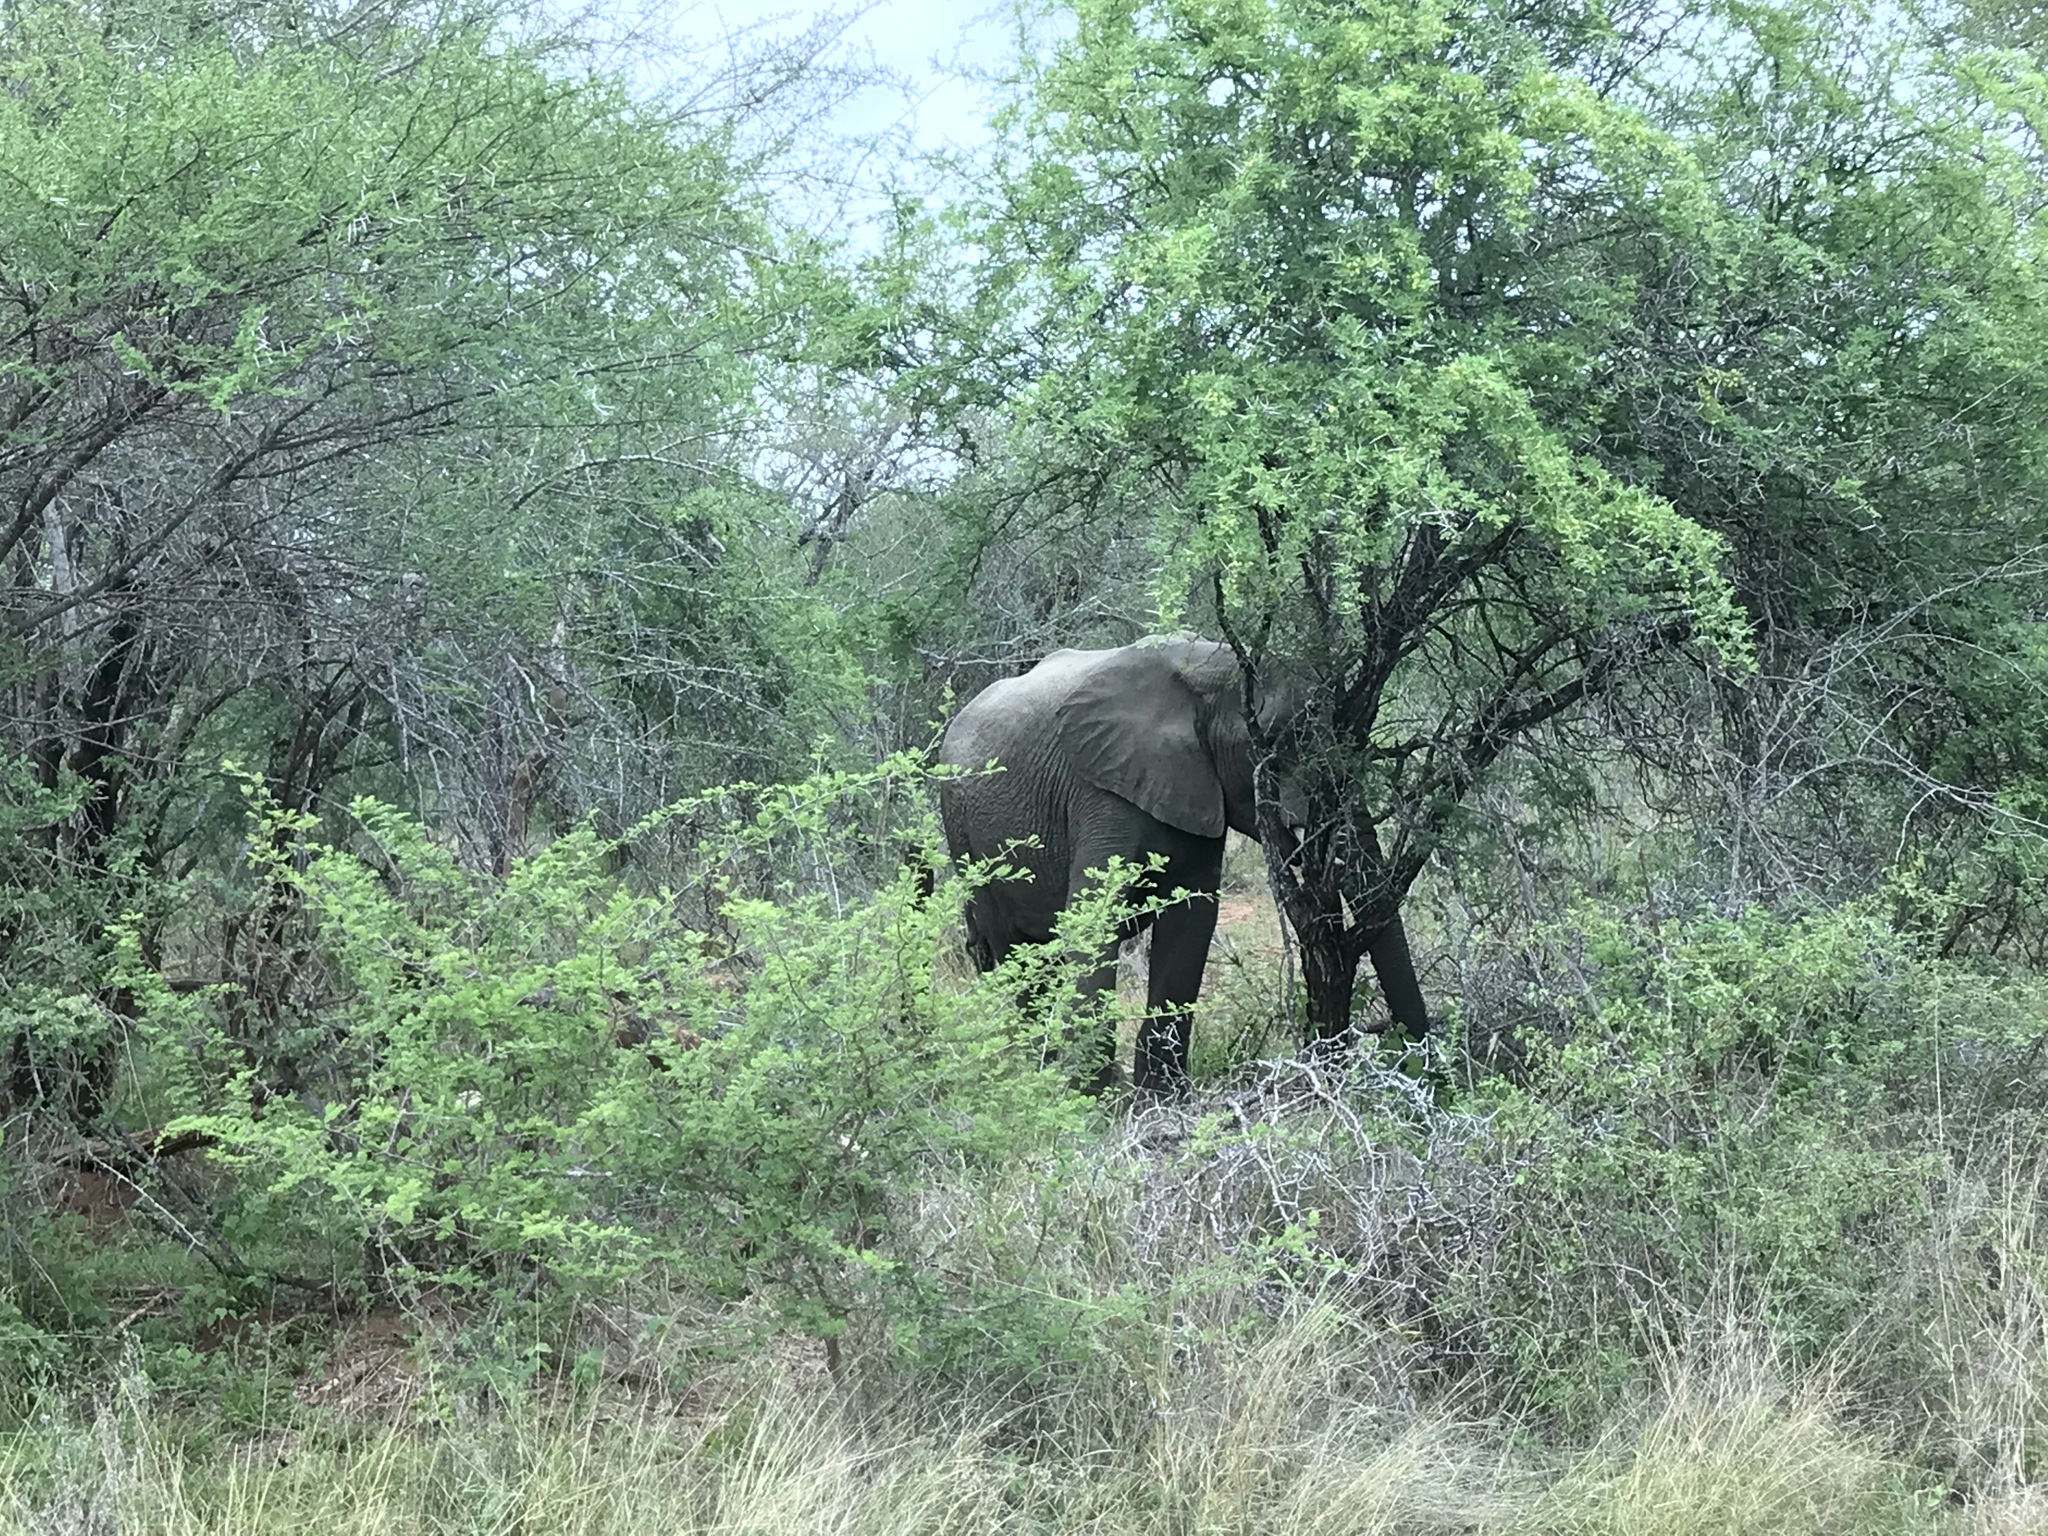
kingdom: Animalia
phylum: Chordata
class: Mammalia
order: Proboscidea
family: Elephantidae
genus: Loxodonta
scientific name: Loxodonta africana
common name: African elephant
